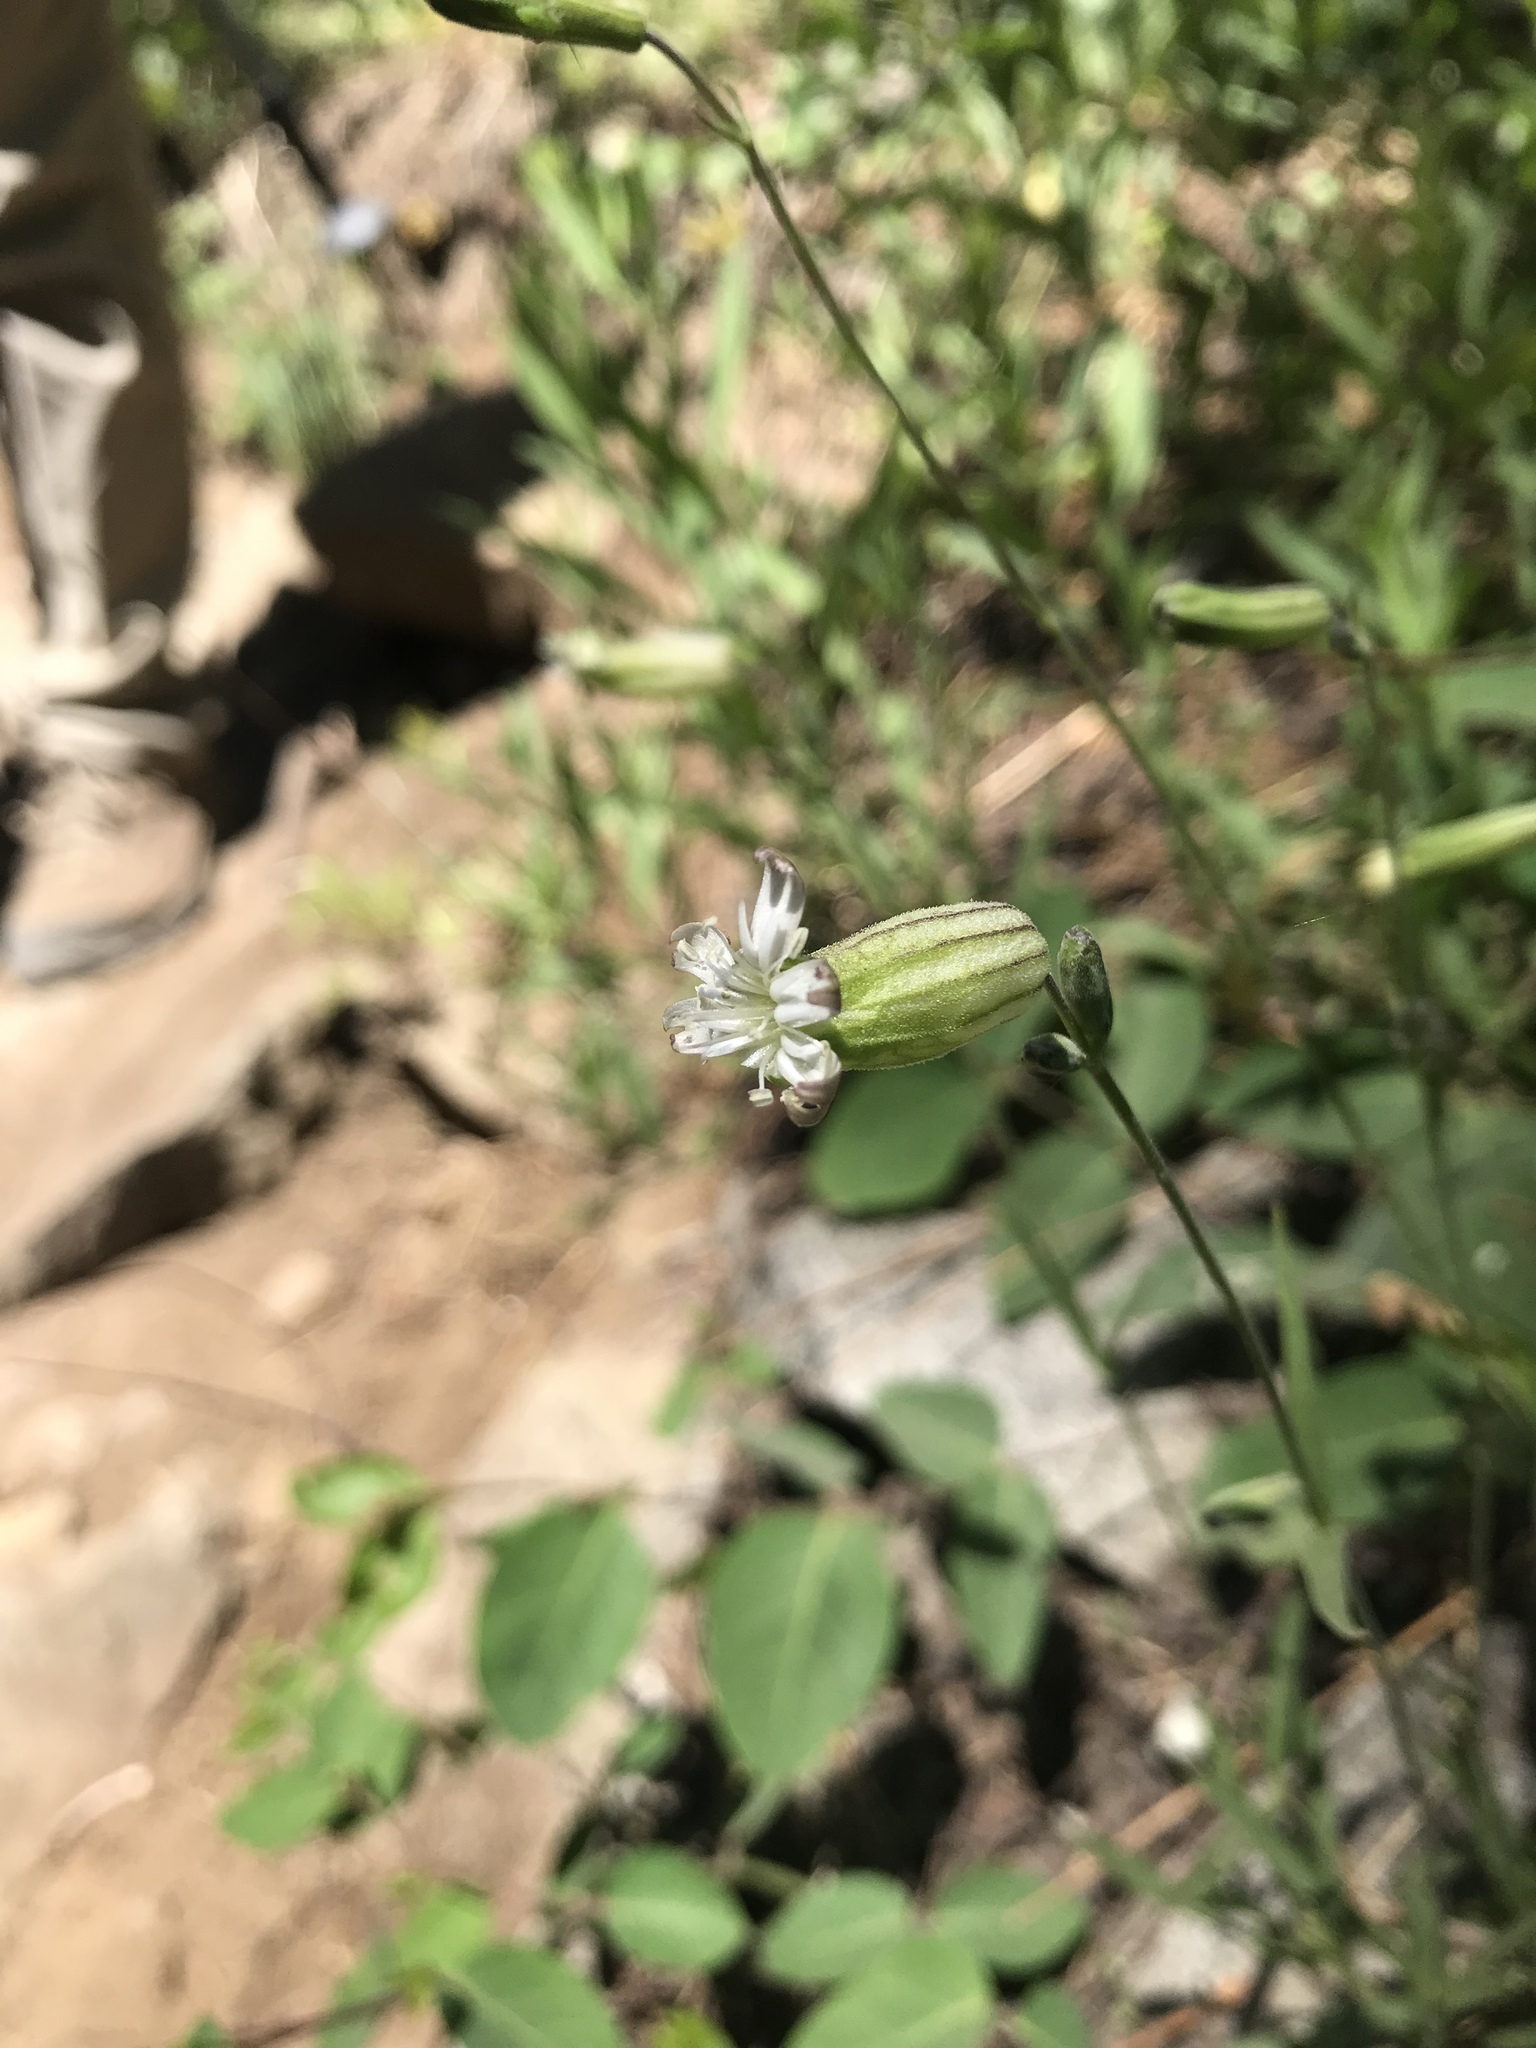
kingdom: Plantae
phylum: Tracheophyta
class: Magnoliopsida
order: Caryophyllales
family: Caryophyllaceae
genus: Silene
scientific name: Silene douglasii
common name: Douglas's catchfly
